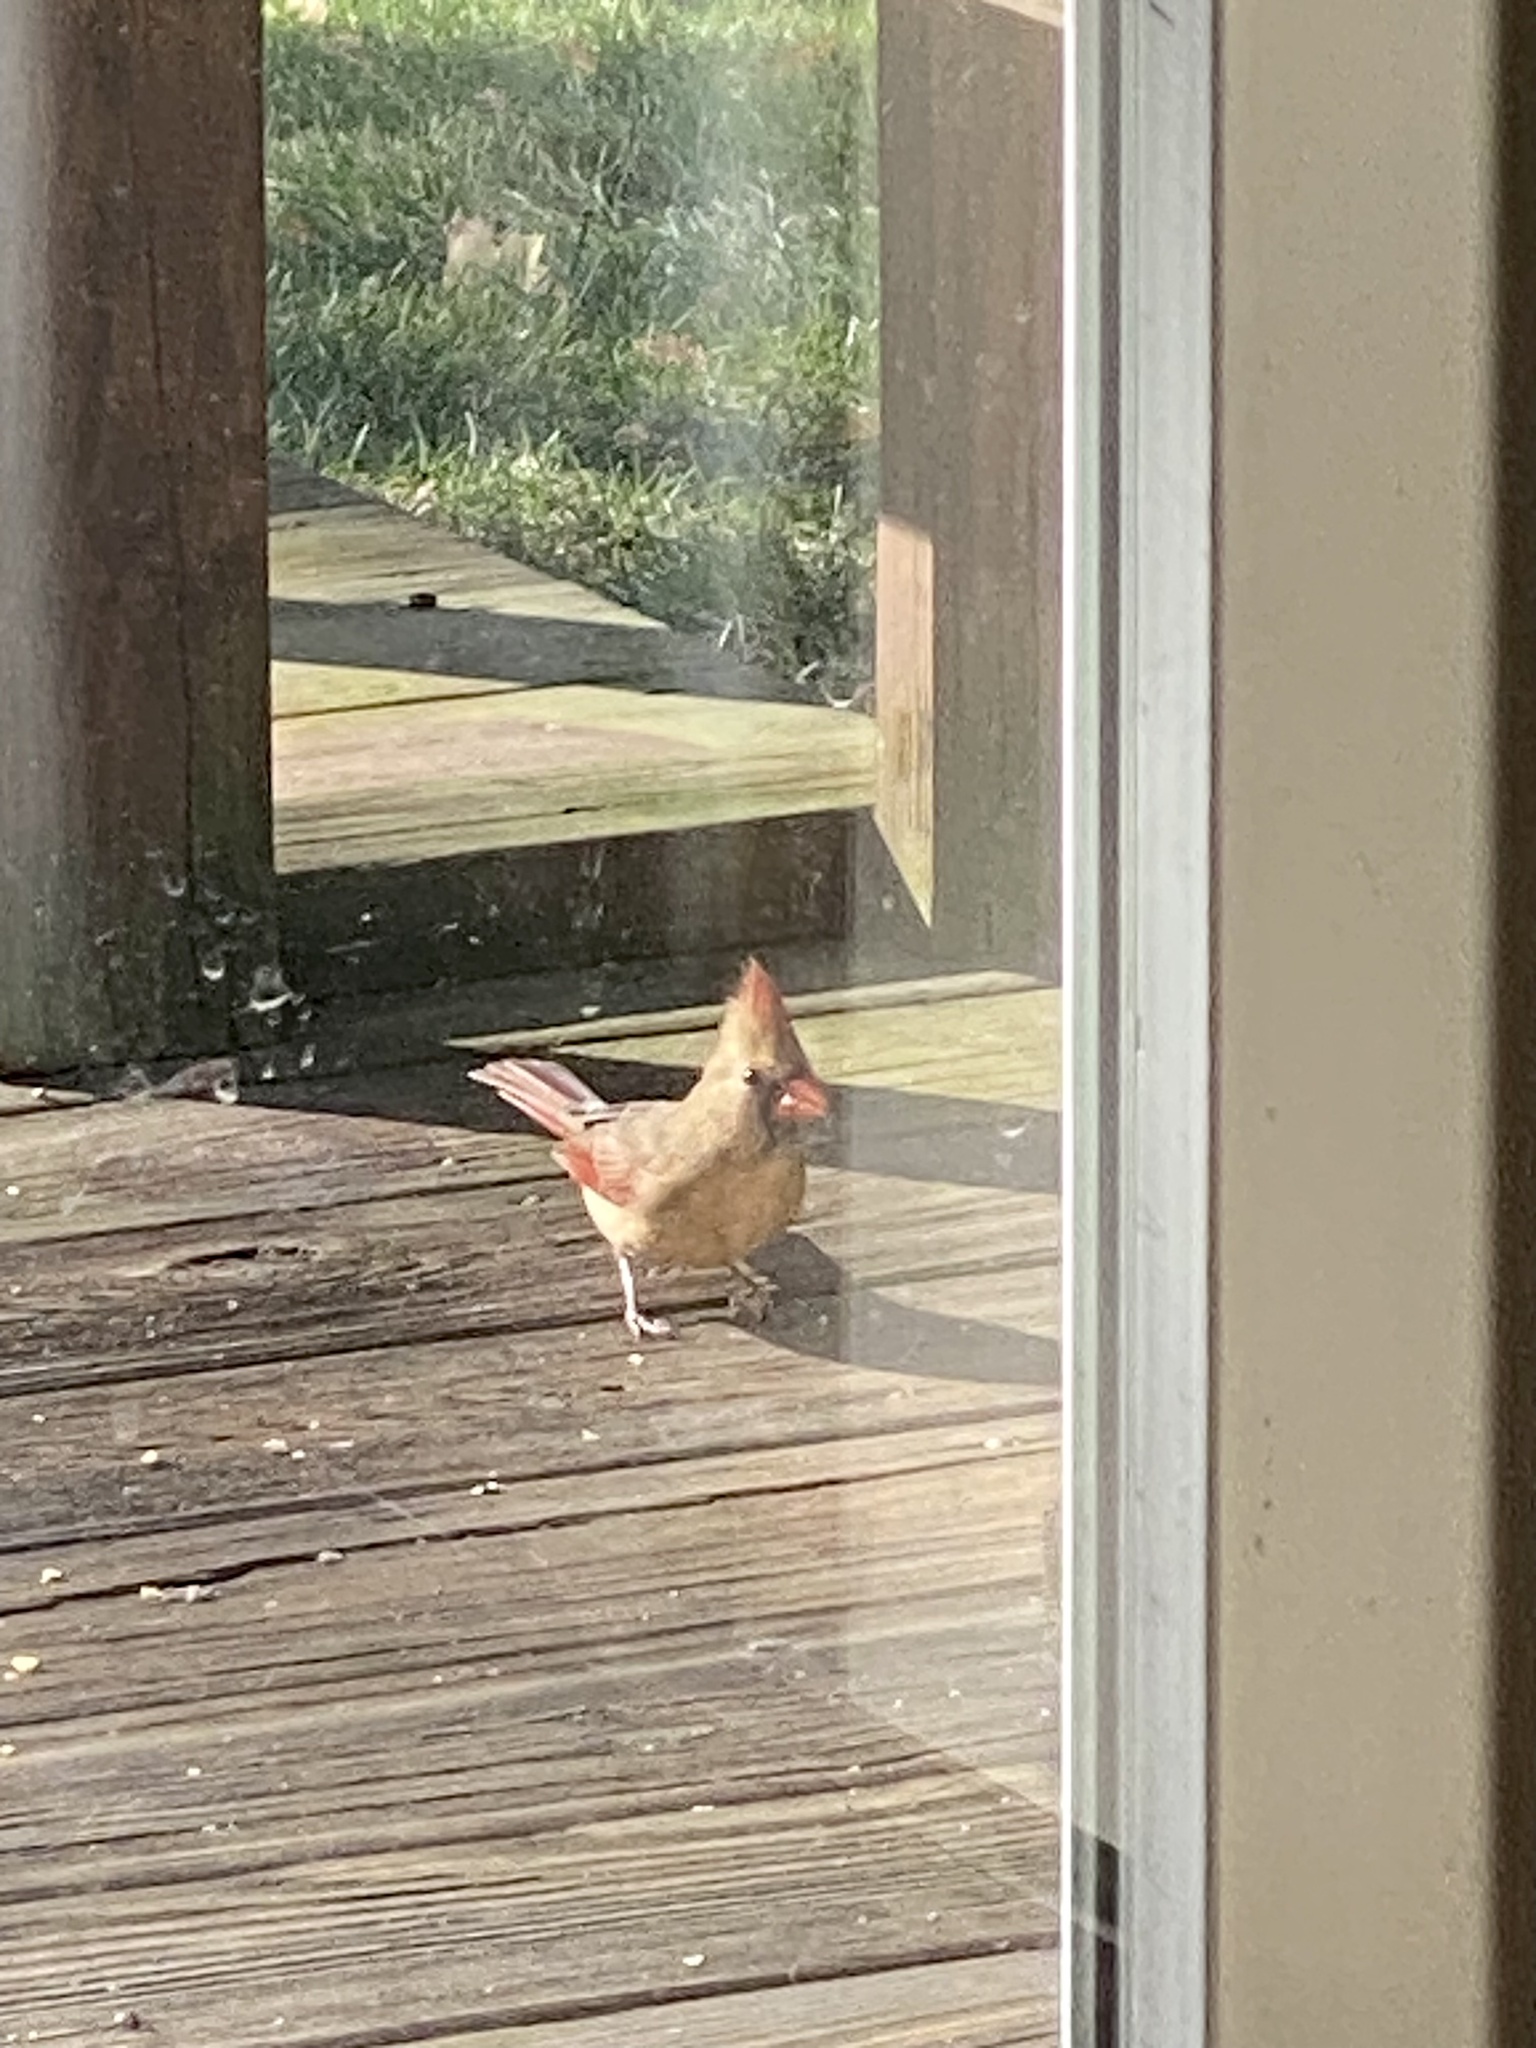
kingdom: Animalia
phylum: Chordata
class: Aves
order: Passeriformes
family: Cardinalidae
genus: Cardinalis
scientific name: Cardinalis cardinalis
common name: Northern cardinal
